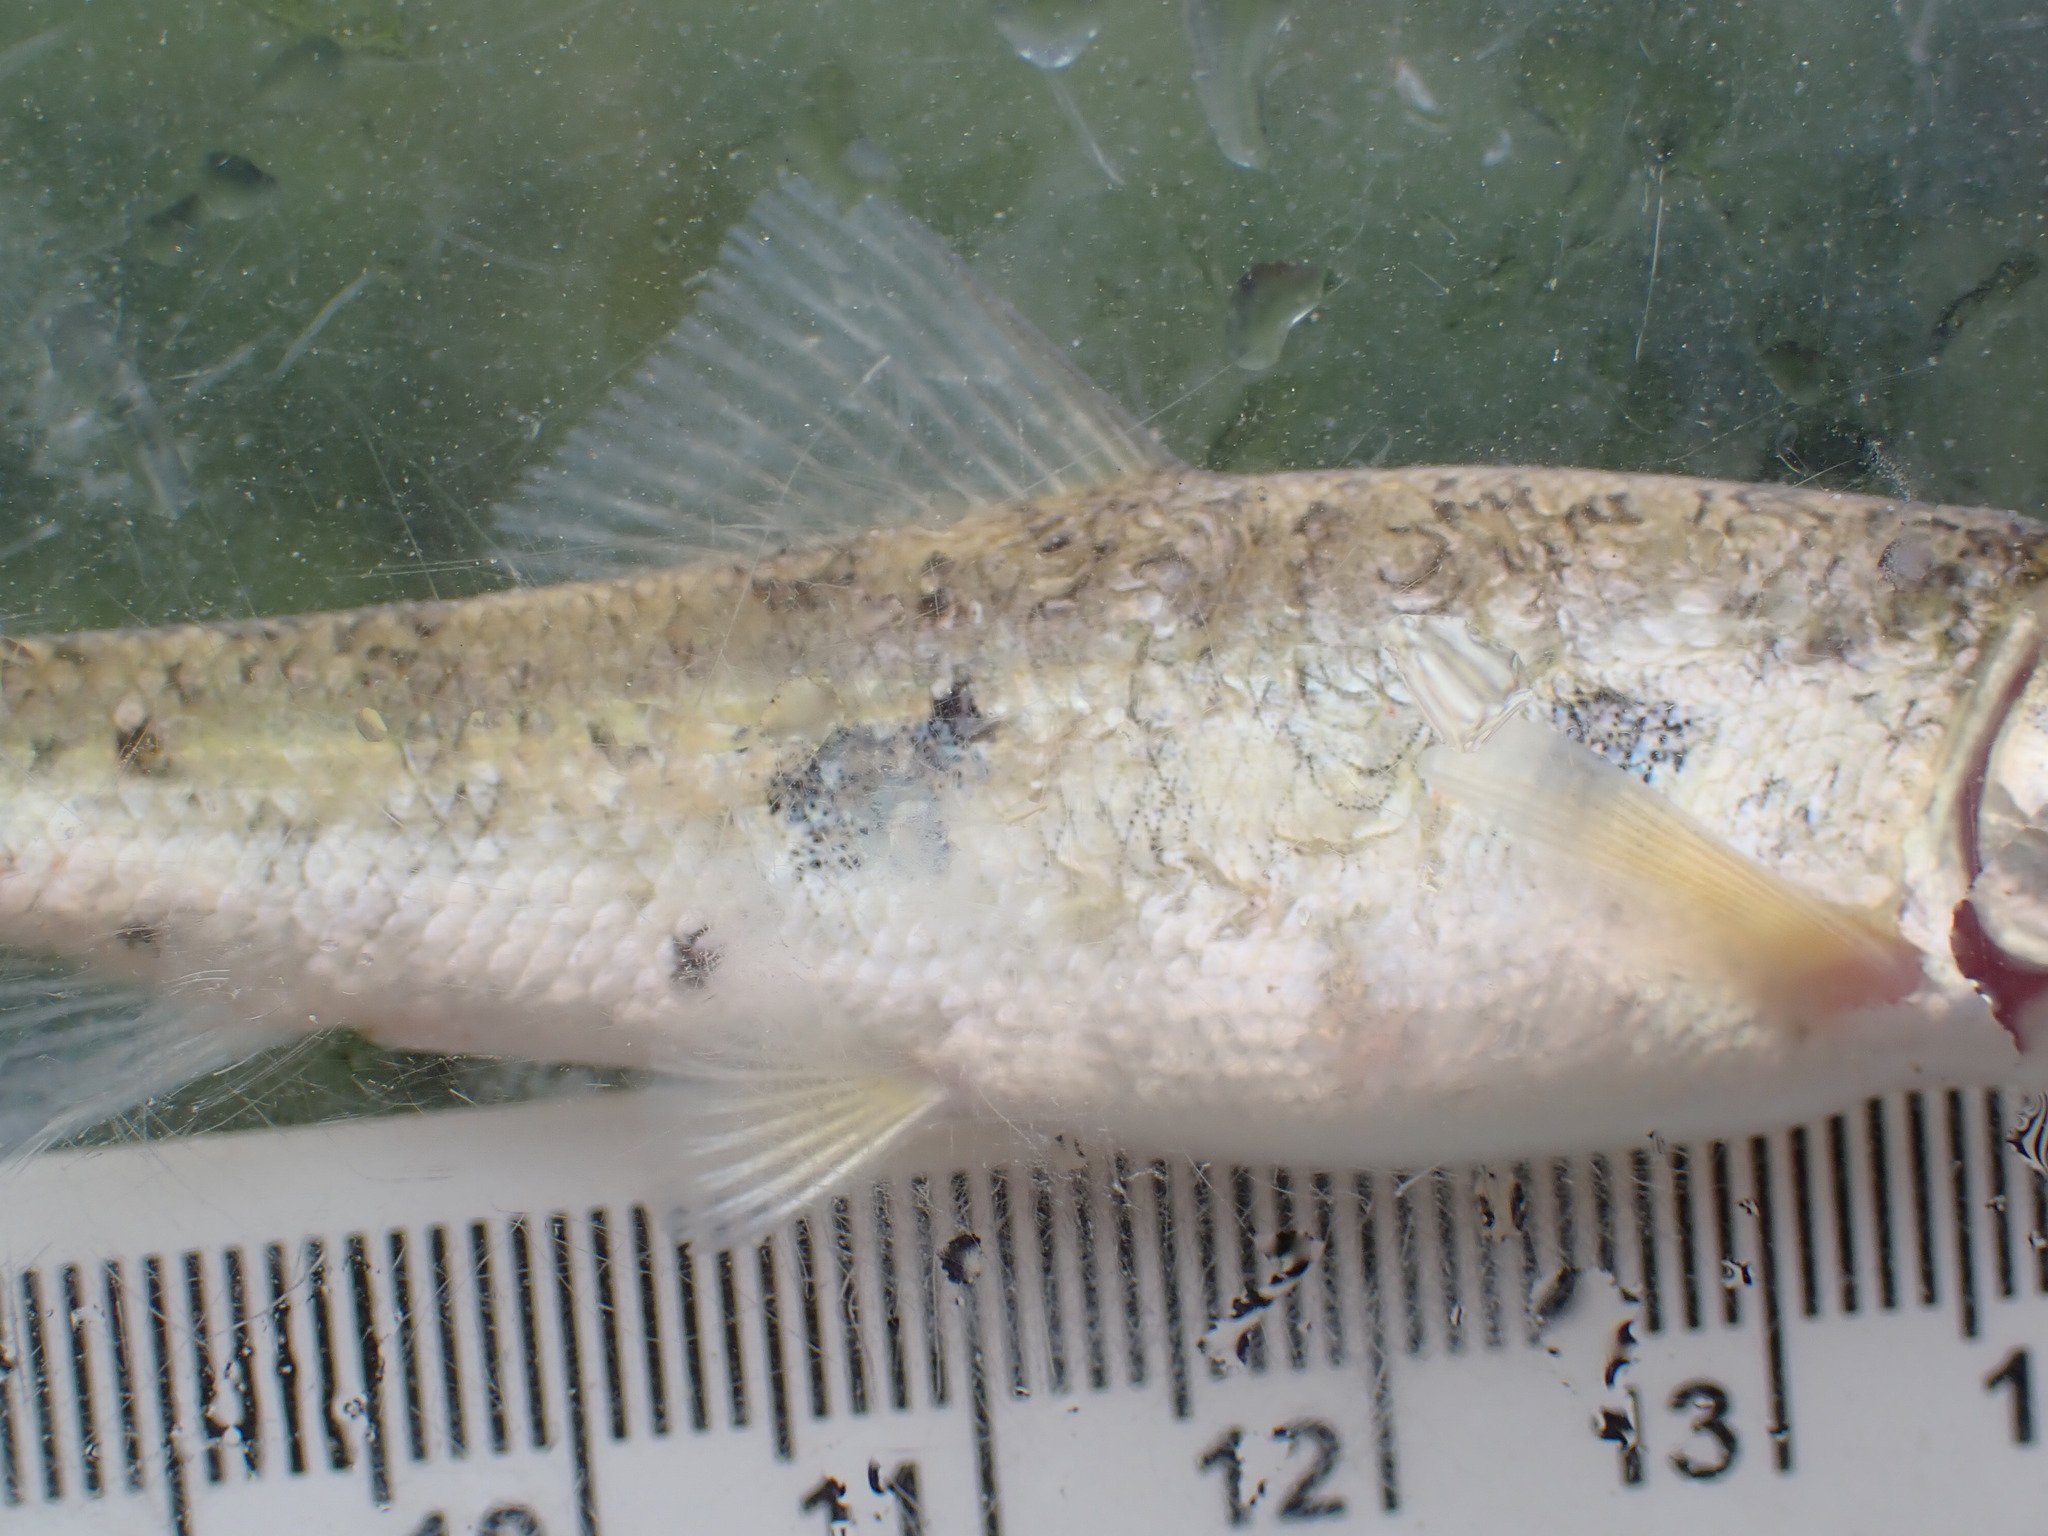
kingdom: Animalia
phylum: Chordata
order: Cypriniformes
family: Catostomidae
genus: Catostomus
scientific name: Catostomus commersonii
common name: White sucker
